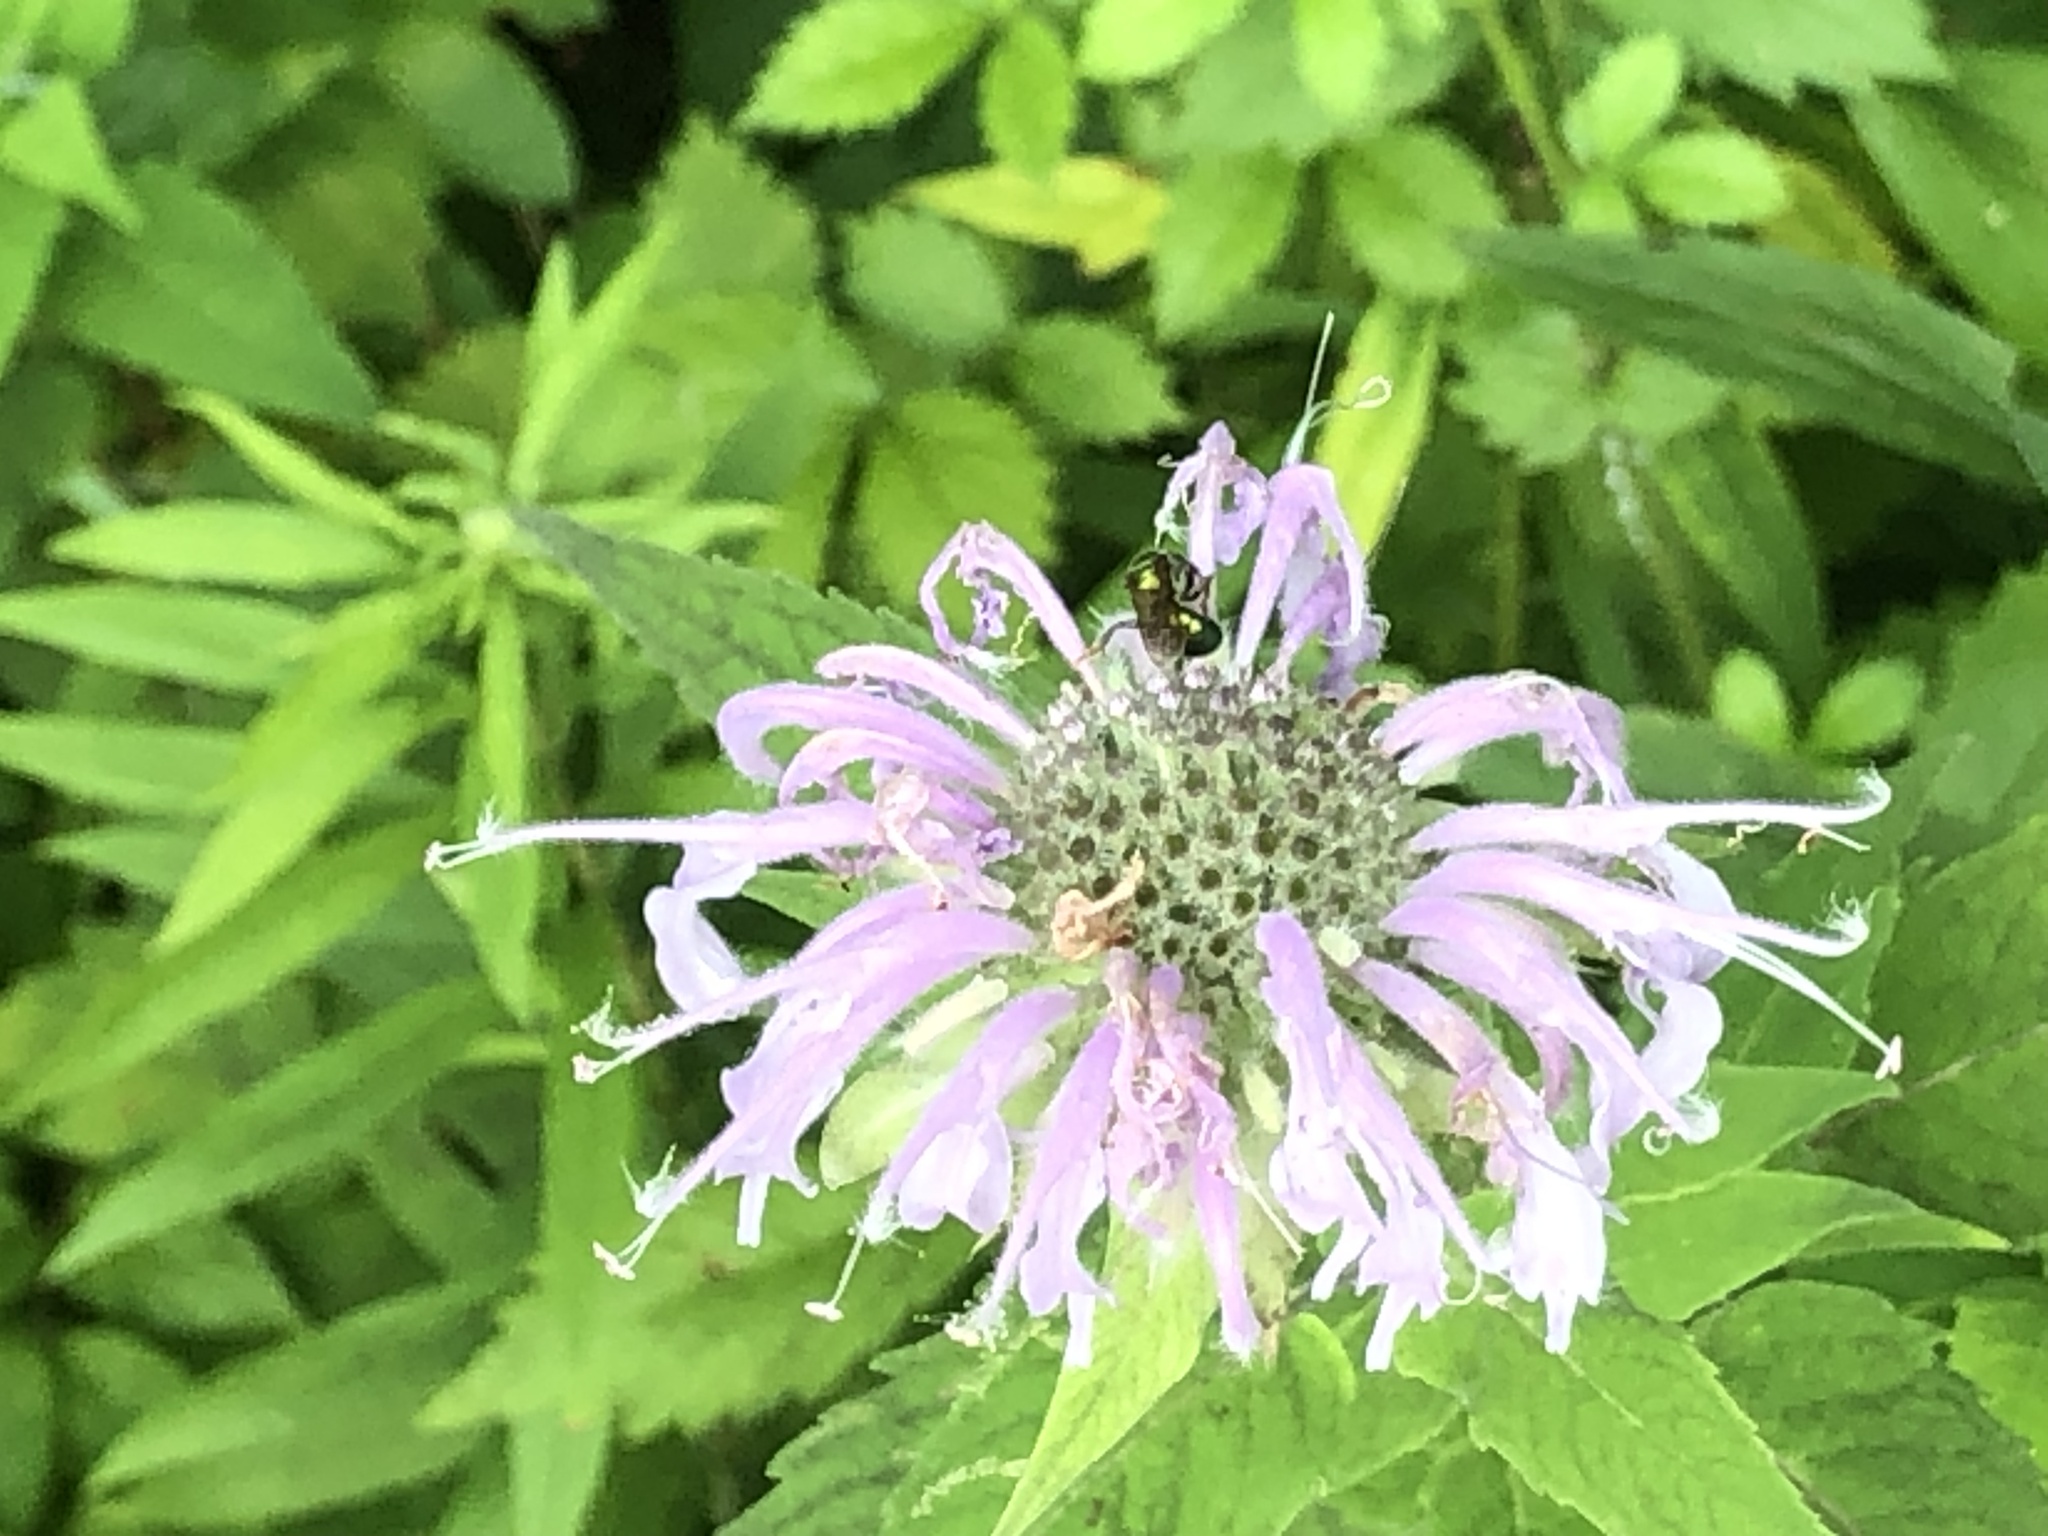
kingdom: Plantae
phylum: Tracheophyta
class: Magnoliopsida
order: Lamiales
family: Lamiaceae
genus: Monarda
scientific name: Monarda fistulosa
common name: Purple beebalm
